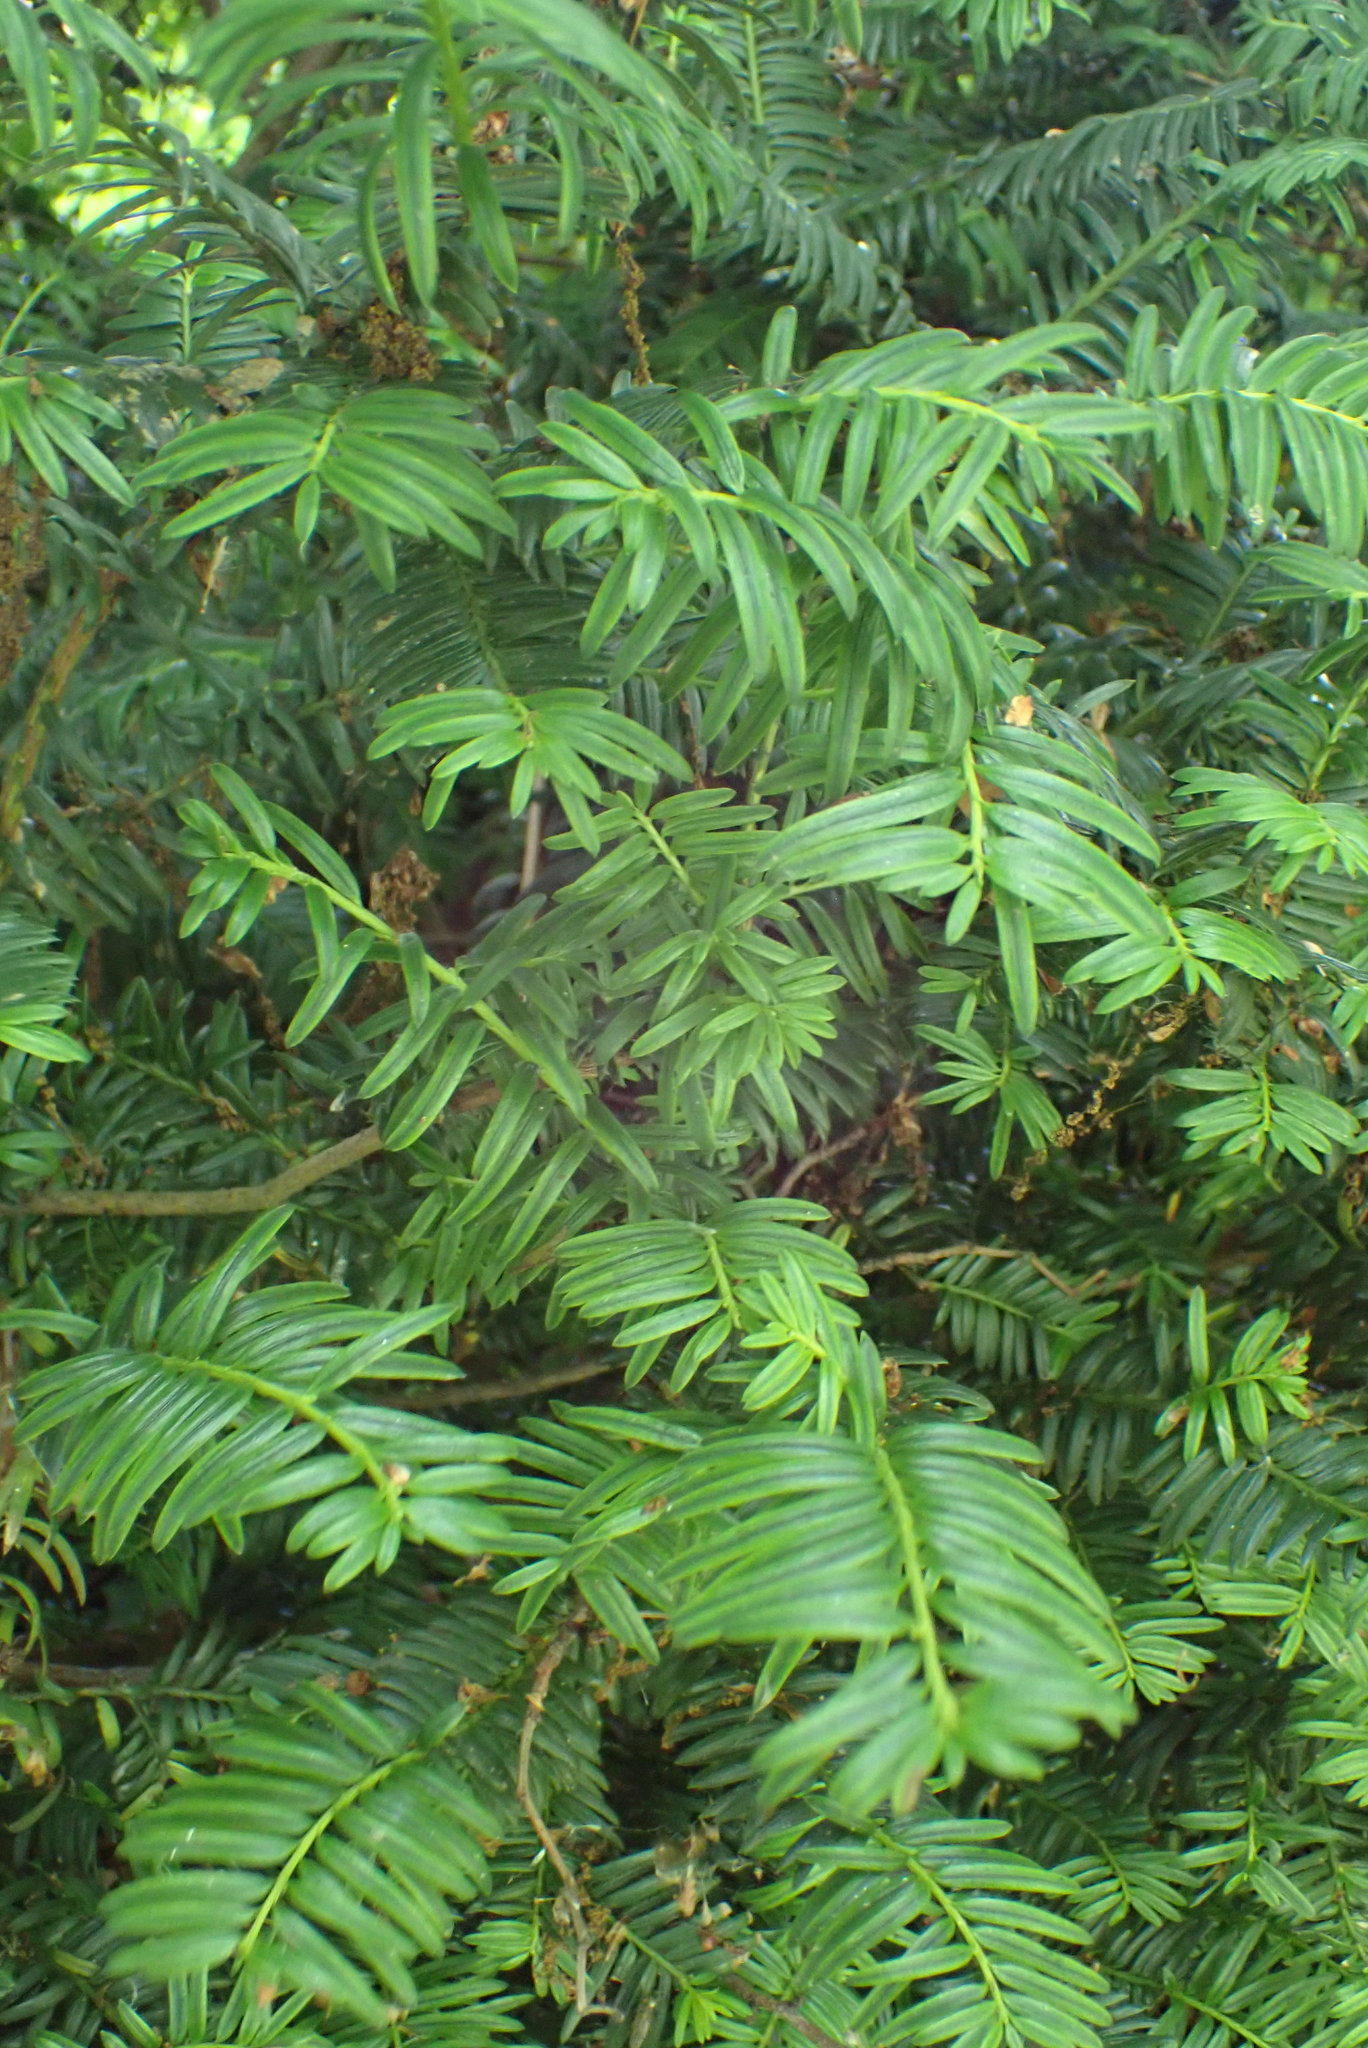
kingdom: Plantae
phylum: Tracheophyta
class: Pinopsida
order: Pinales
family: Taxaceae
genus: Taxus
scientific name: Taxus baccata
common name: Yew
